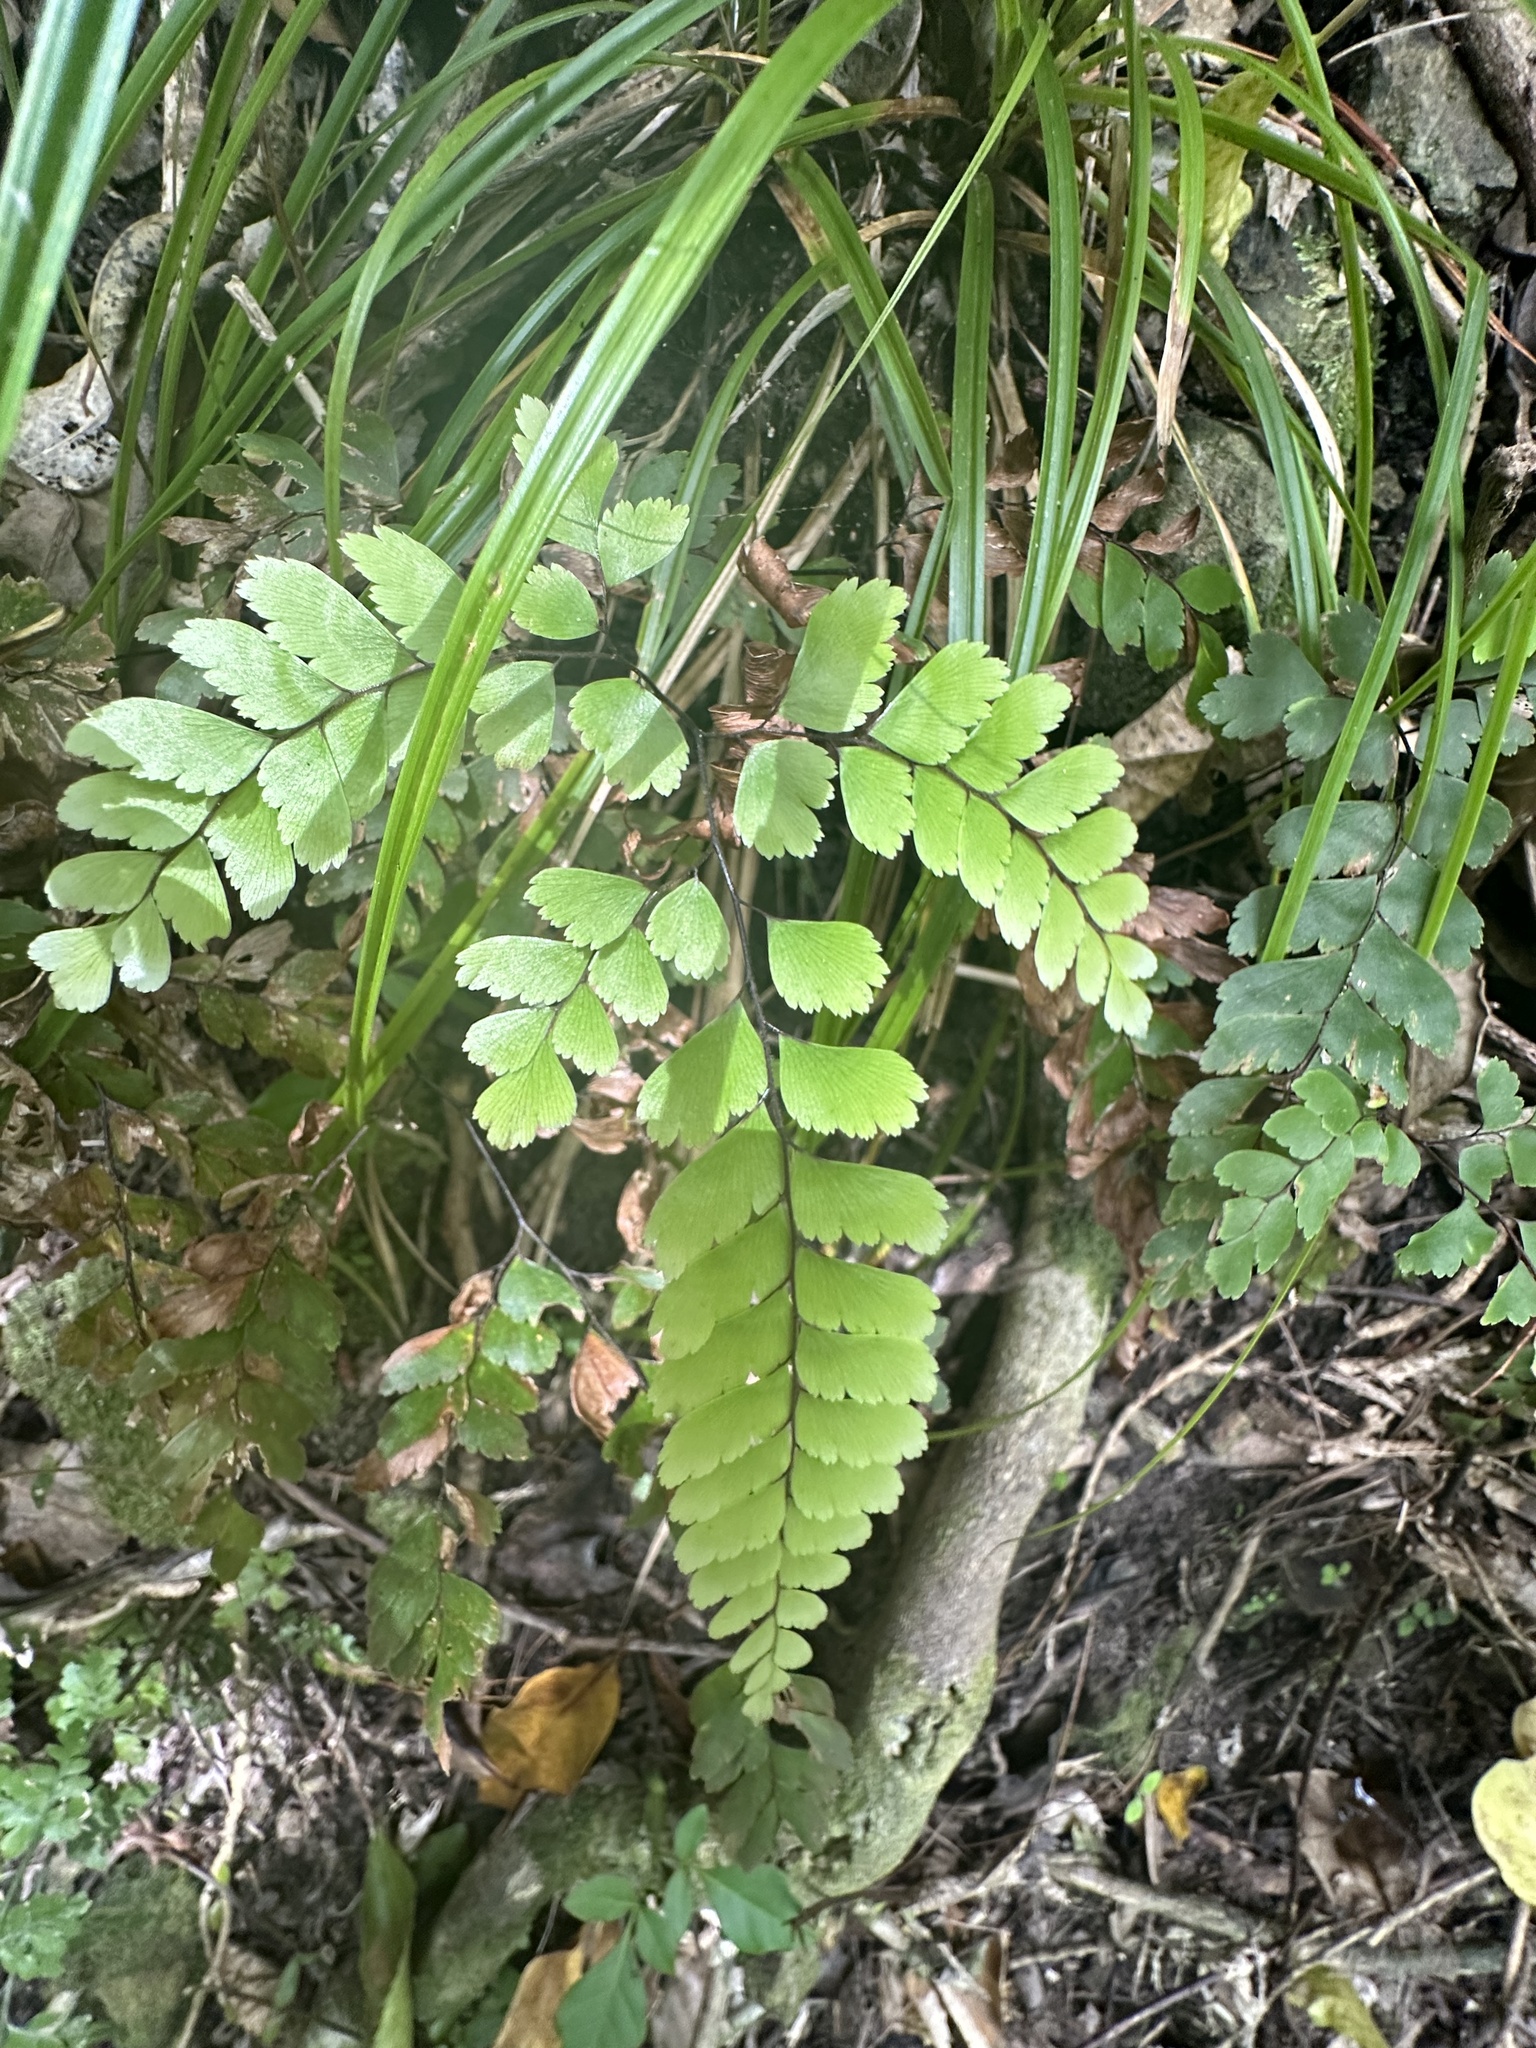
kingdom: Plantae
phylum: Tracheophyta
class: Polypodiopsida
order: Polypodiales
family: Pteridaceae
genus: Adiantum
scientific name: Adiantum cunninghamii
